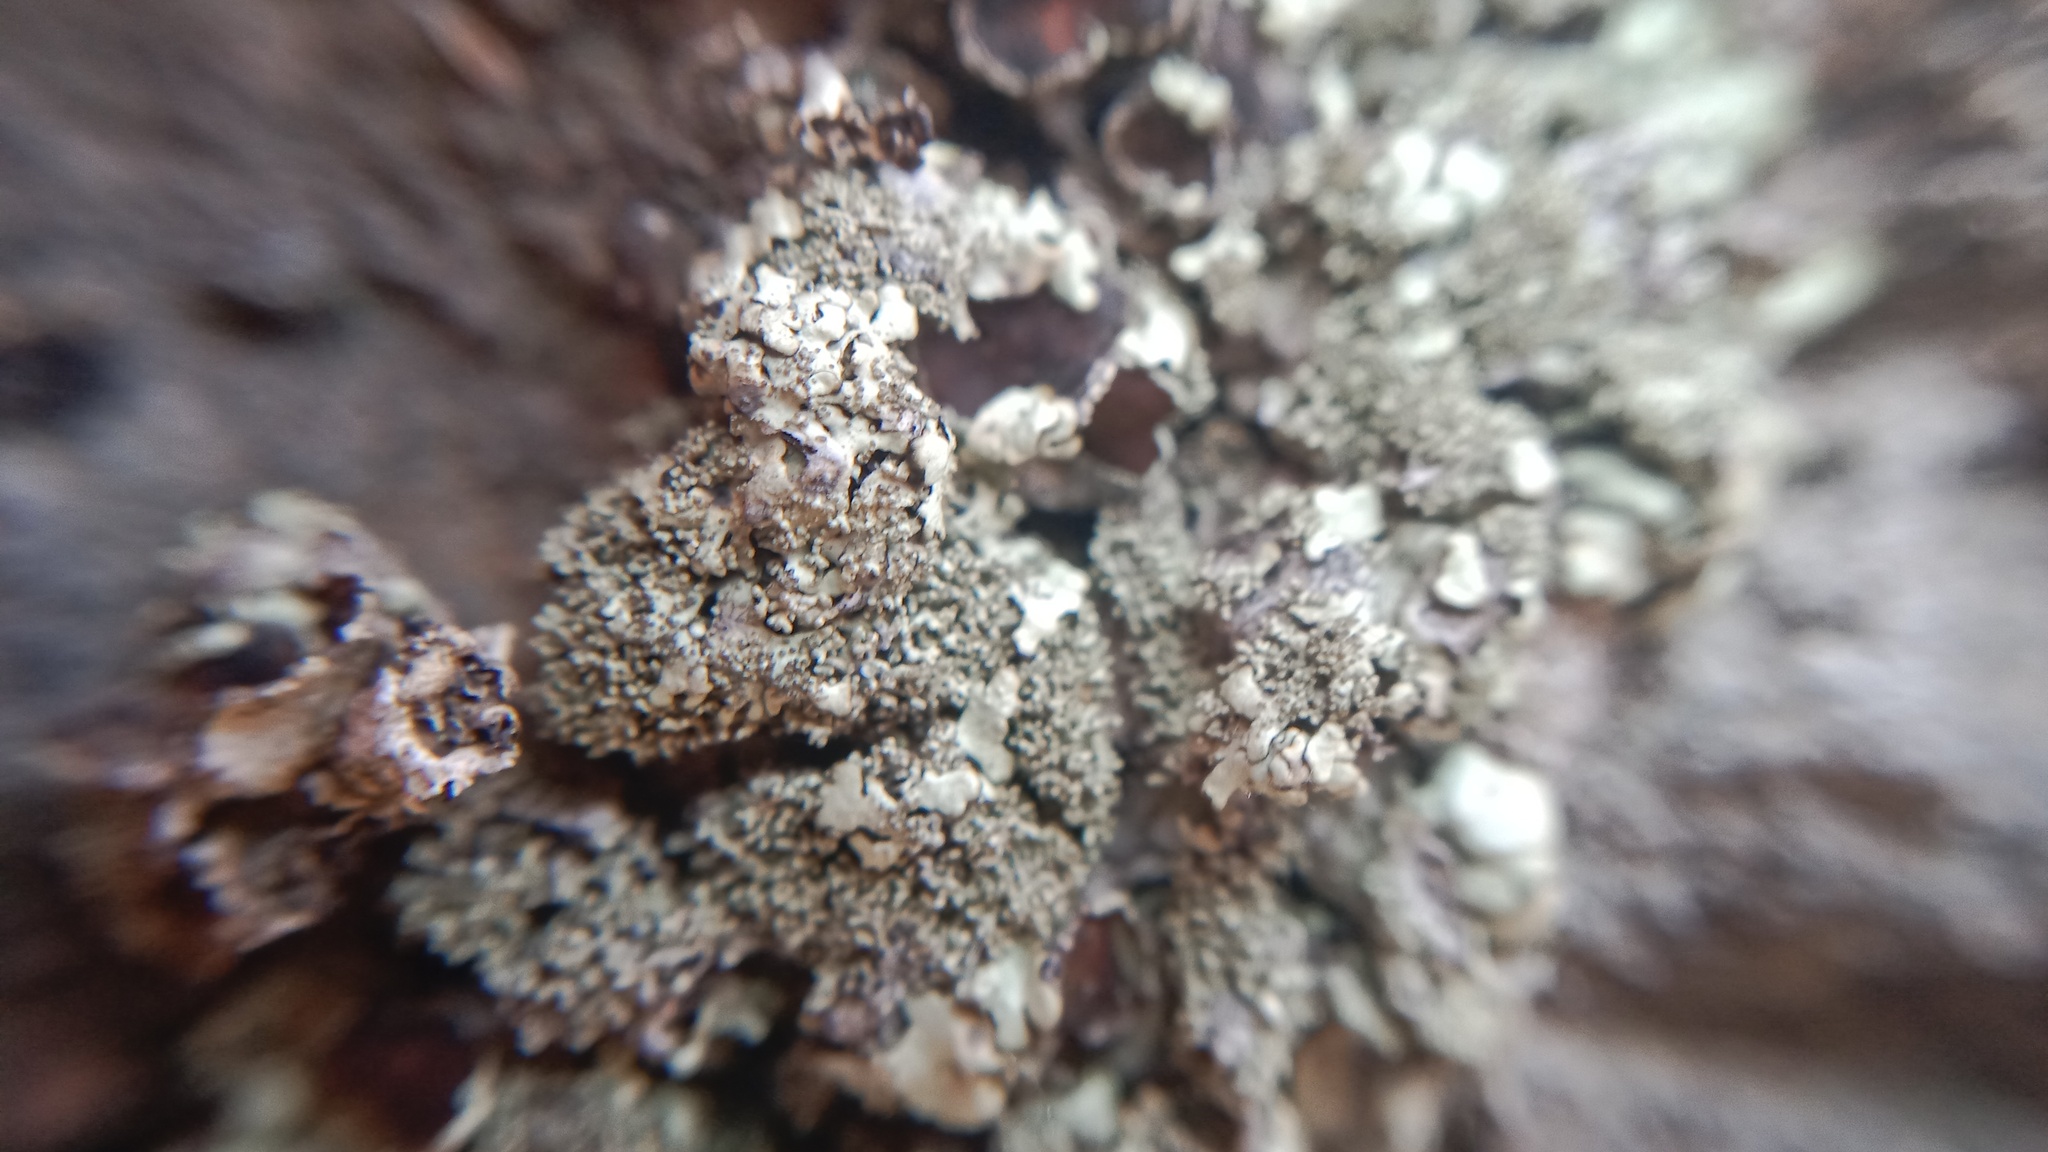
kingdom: Fungi
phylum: Ascomycota
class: Lecanoromycetes
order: Lecanorales
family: Parmeliaceae
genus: Xanthoparmelia
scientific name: Xanthoparmelia conspersa
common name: Peppered rock shield
